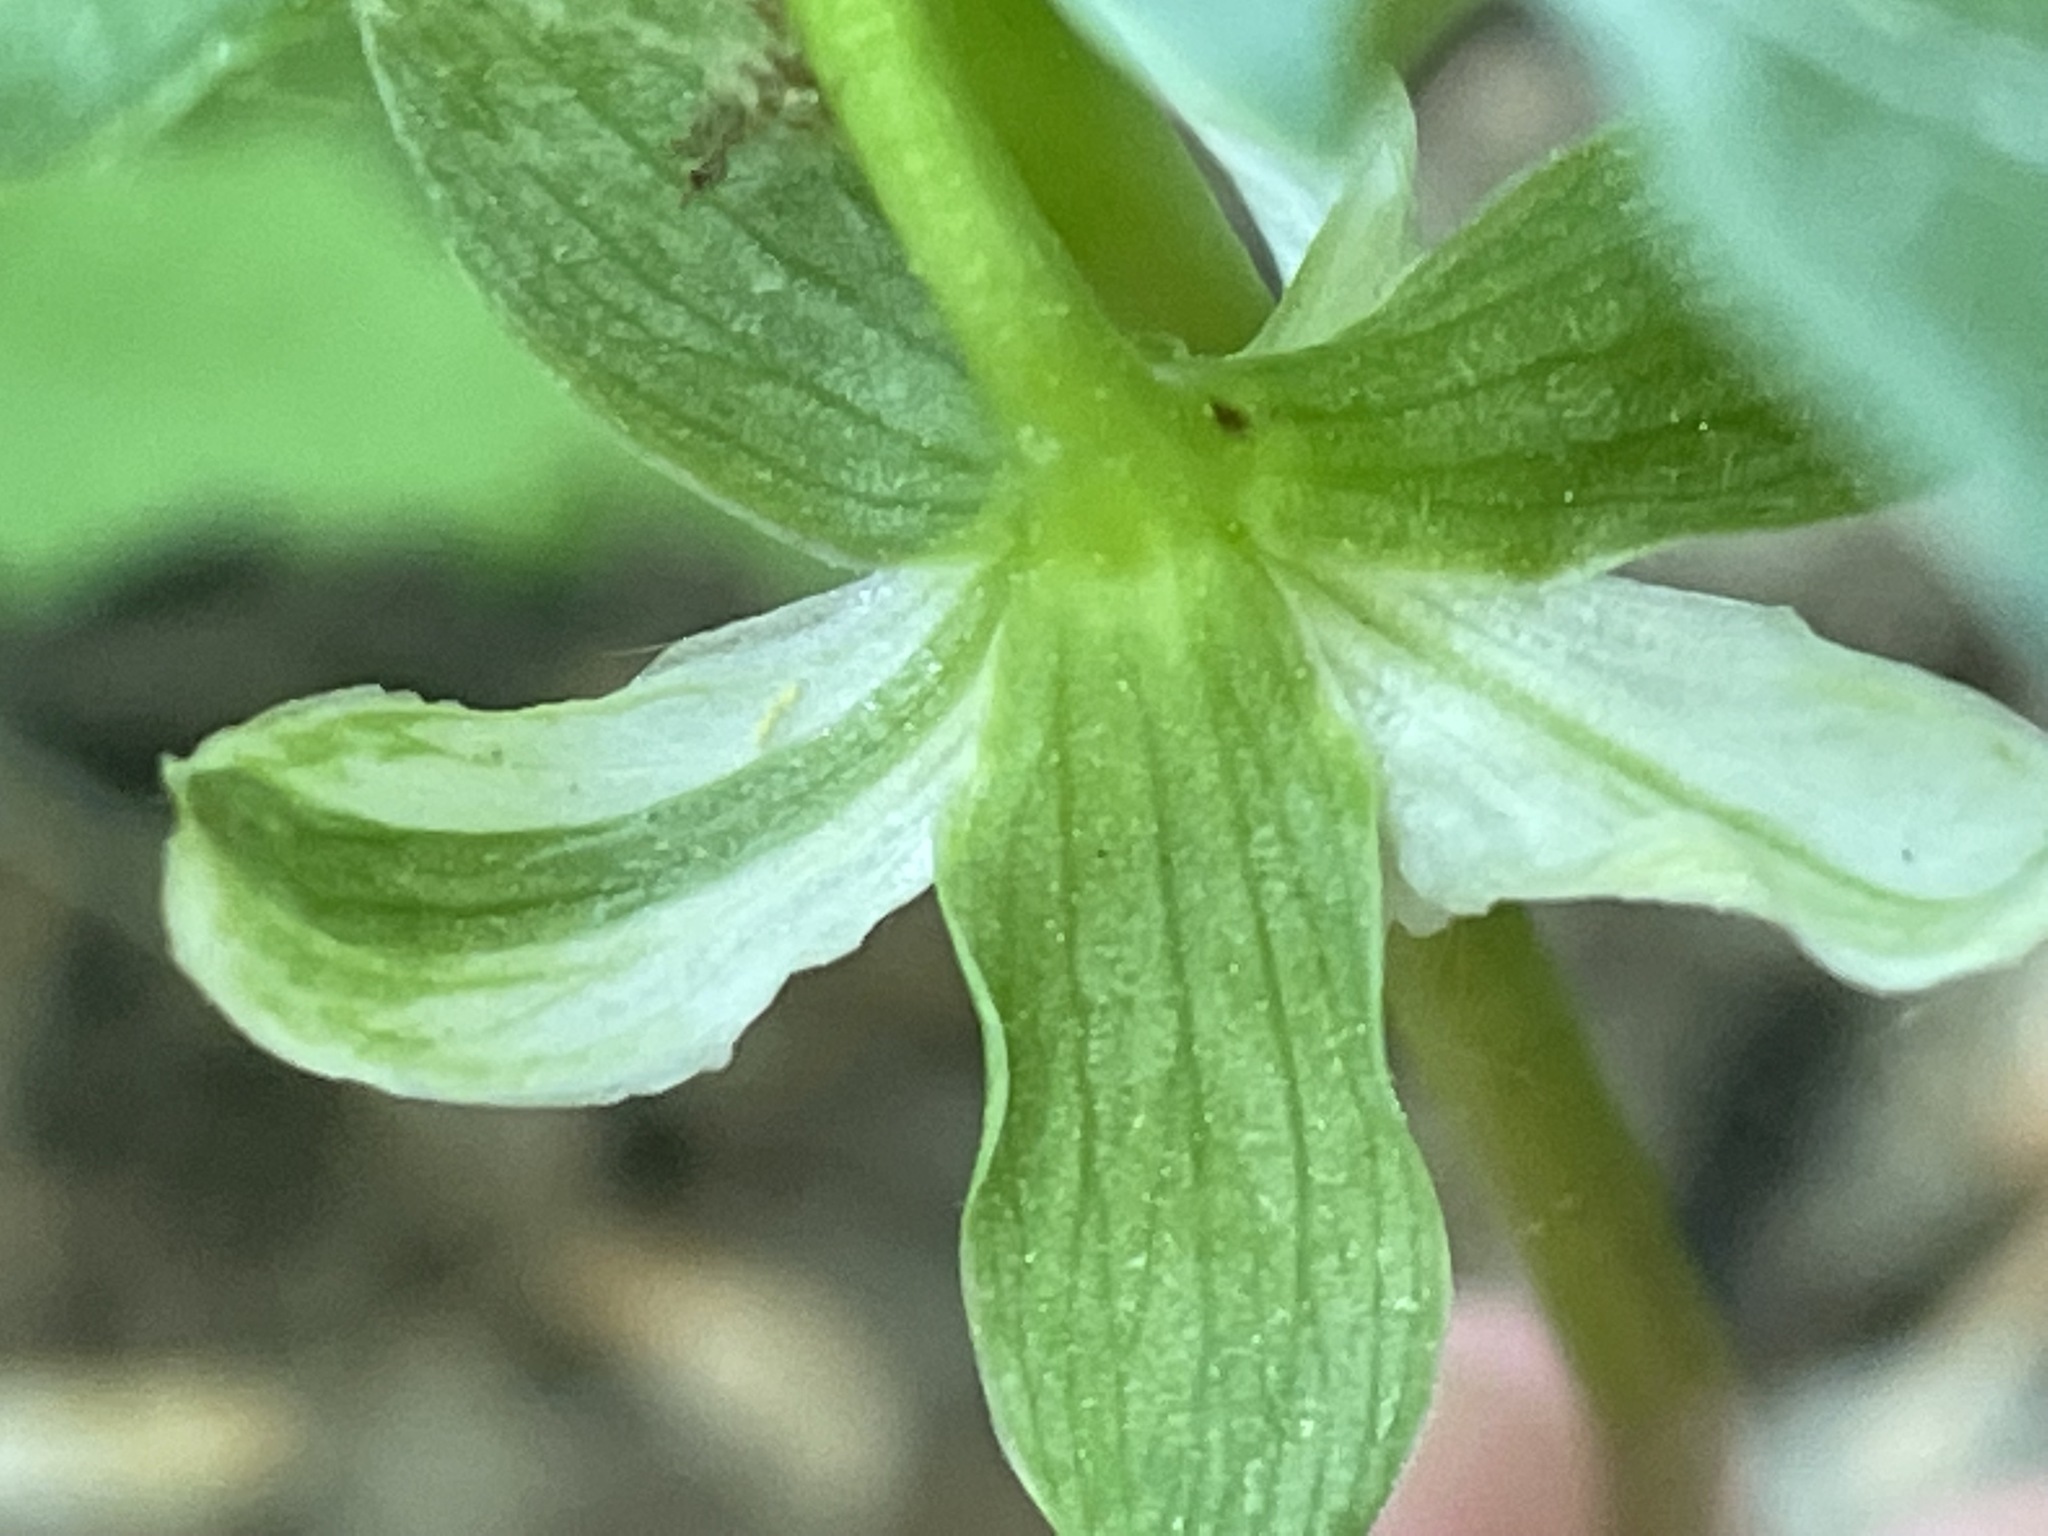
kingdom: Plantae
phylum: Tracheophyta
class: Liliopsida
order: Liliales
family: Melanthiaceae
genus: Trillium
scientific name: Trillium cernuum
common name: Nodding trillium
